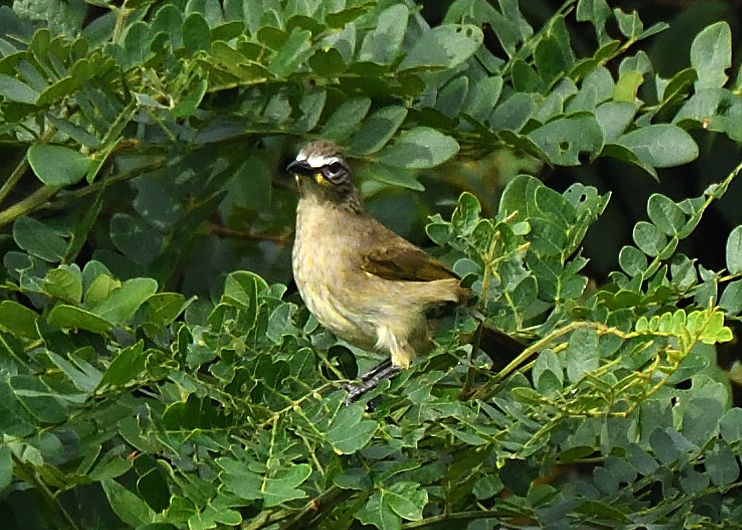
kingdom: Animalia
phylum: Chordata
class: Aves
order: Passeriformes
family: Pycnonotidae
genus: Pycnonotus
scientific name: Pycnonotus luteolus
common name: White-browed bulbul
